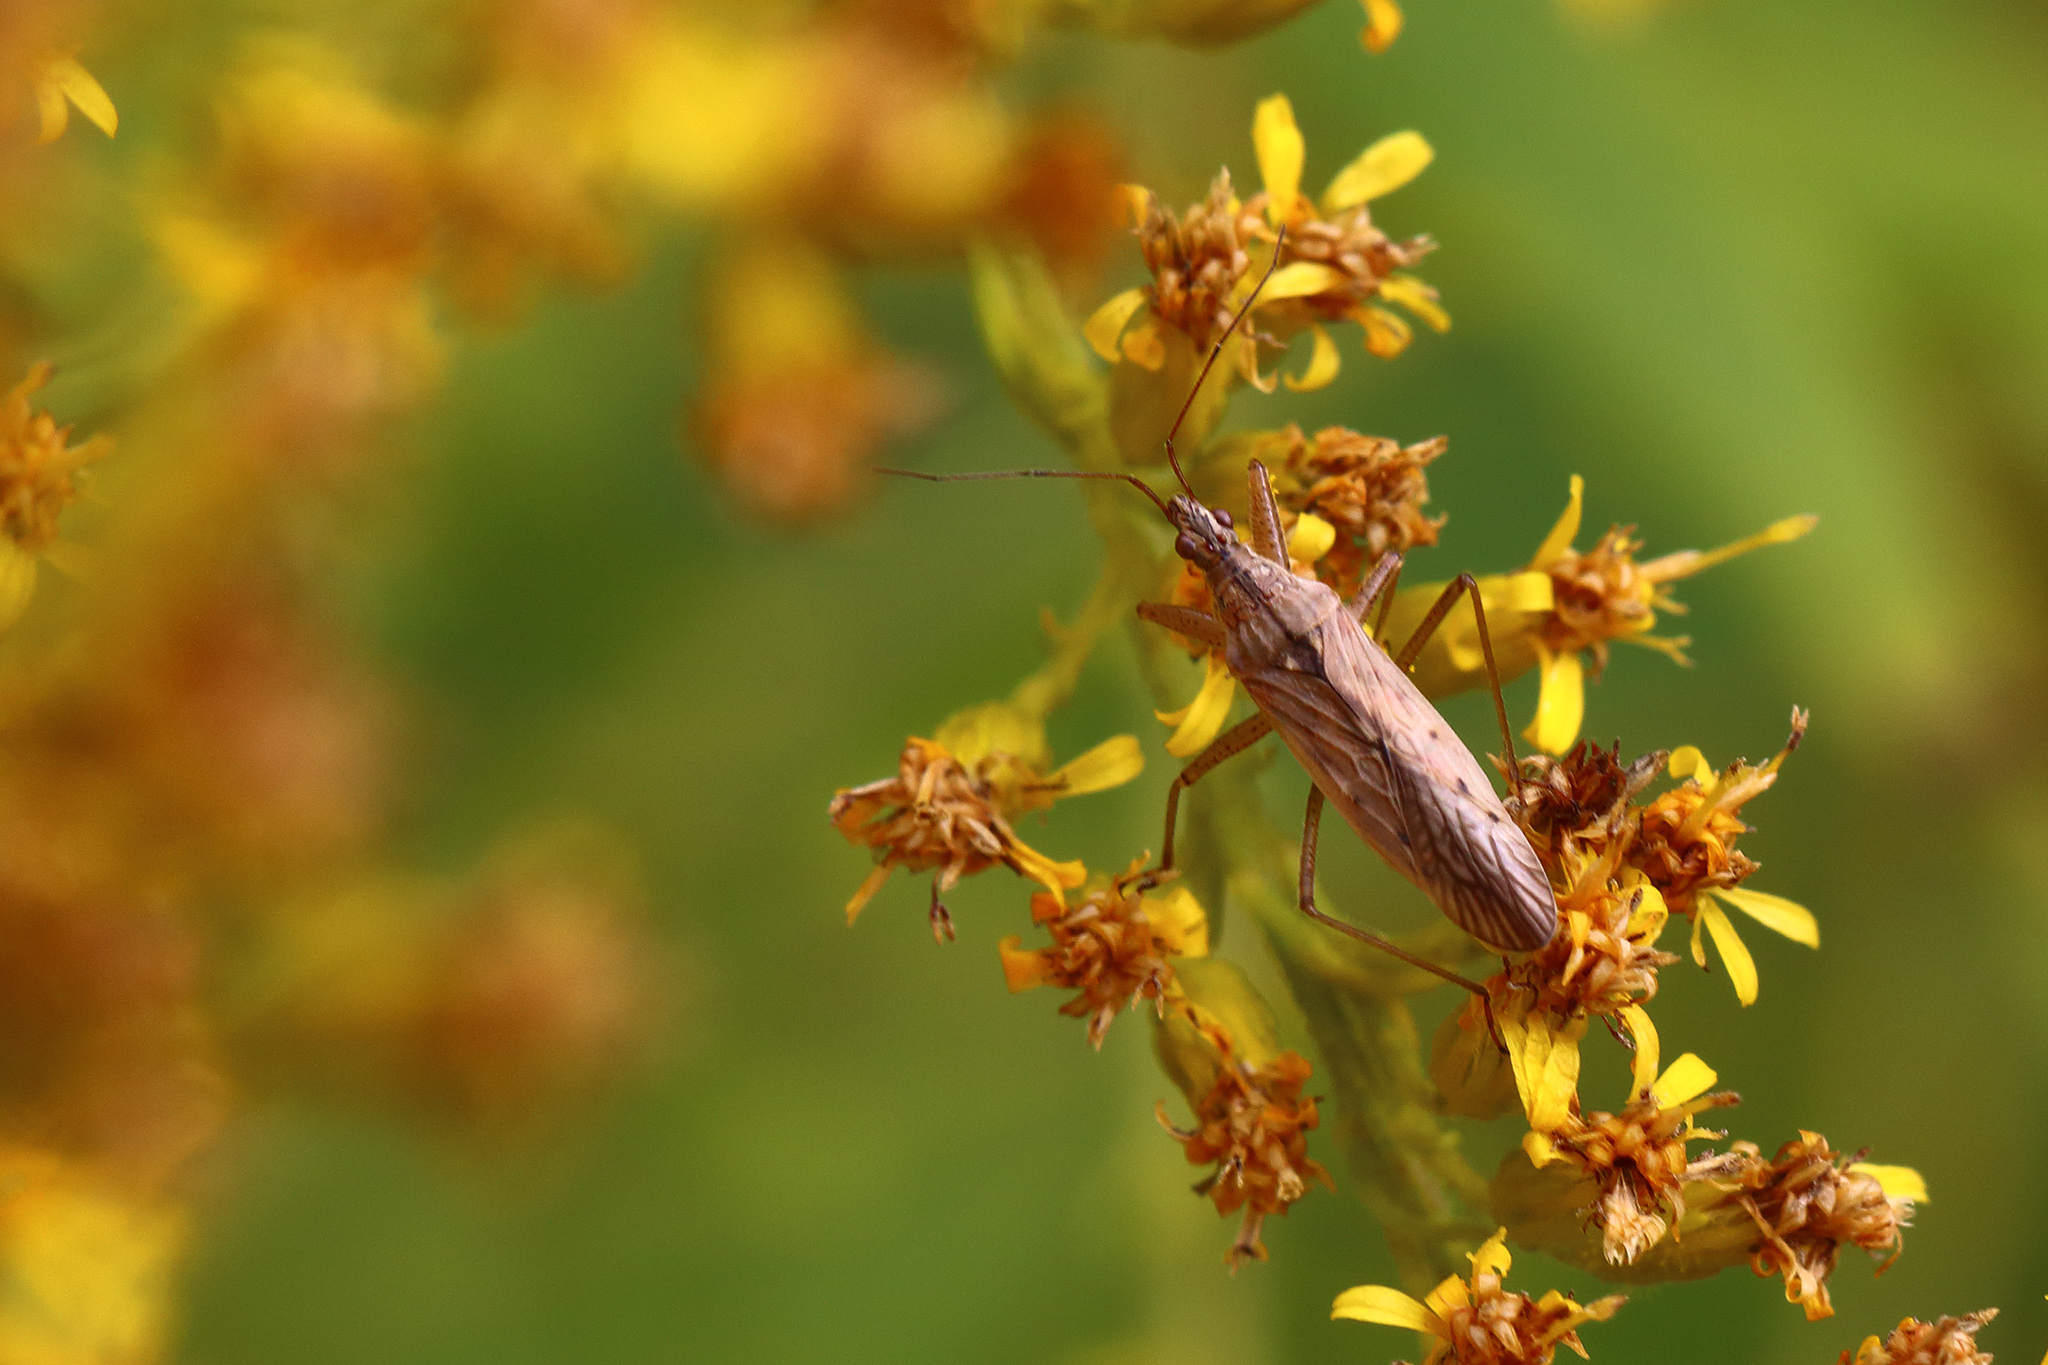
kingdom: Animalia
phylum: Arthropoda
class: Insecta
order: Hemiptera
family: Nabidae
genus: Nabis
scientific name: Nabis ferus
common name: Field damsel bug
